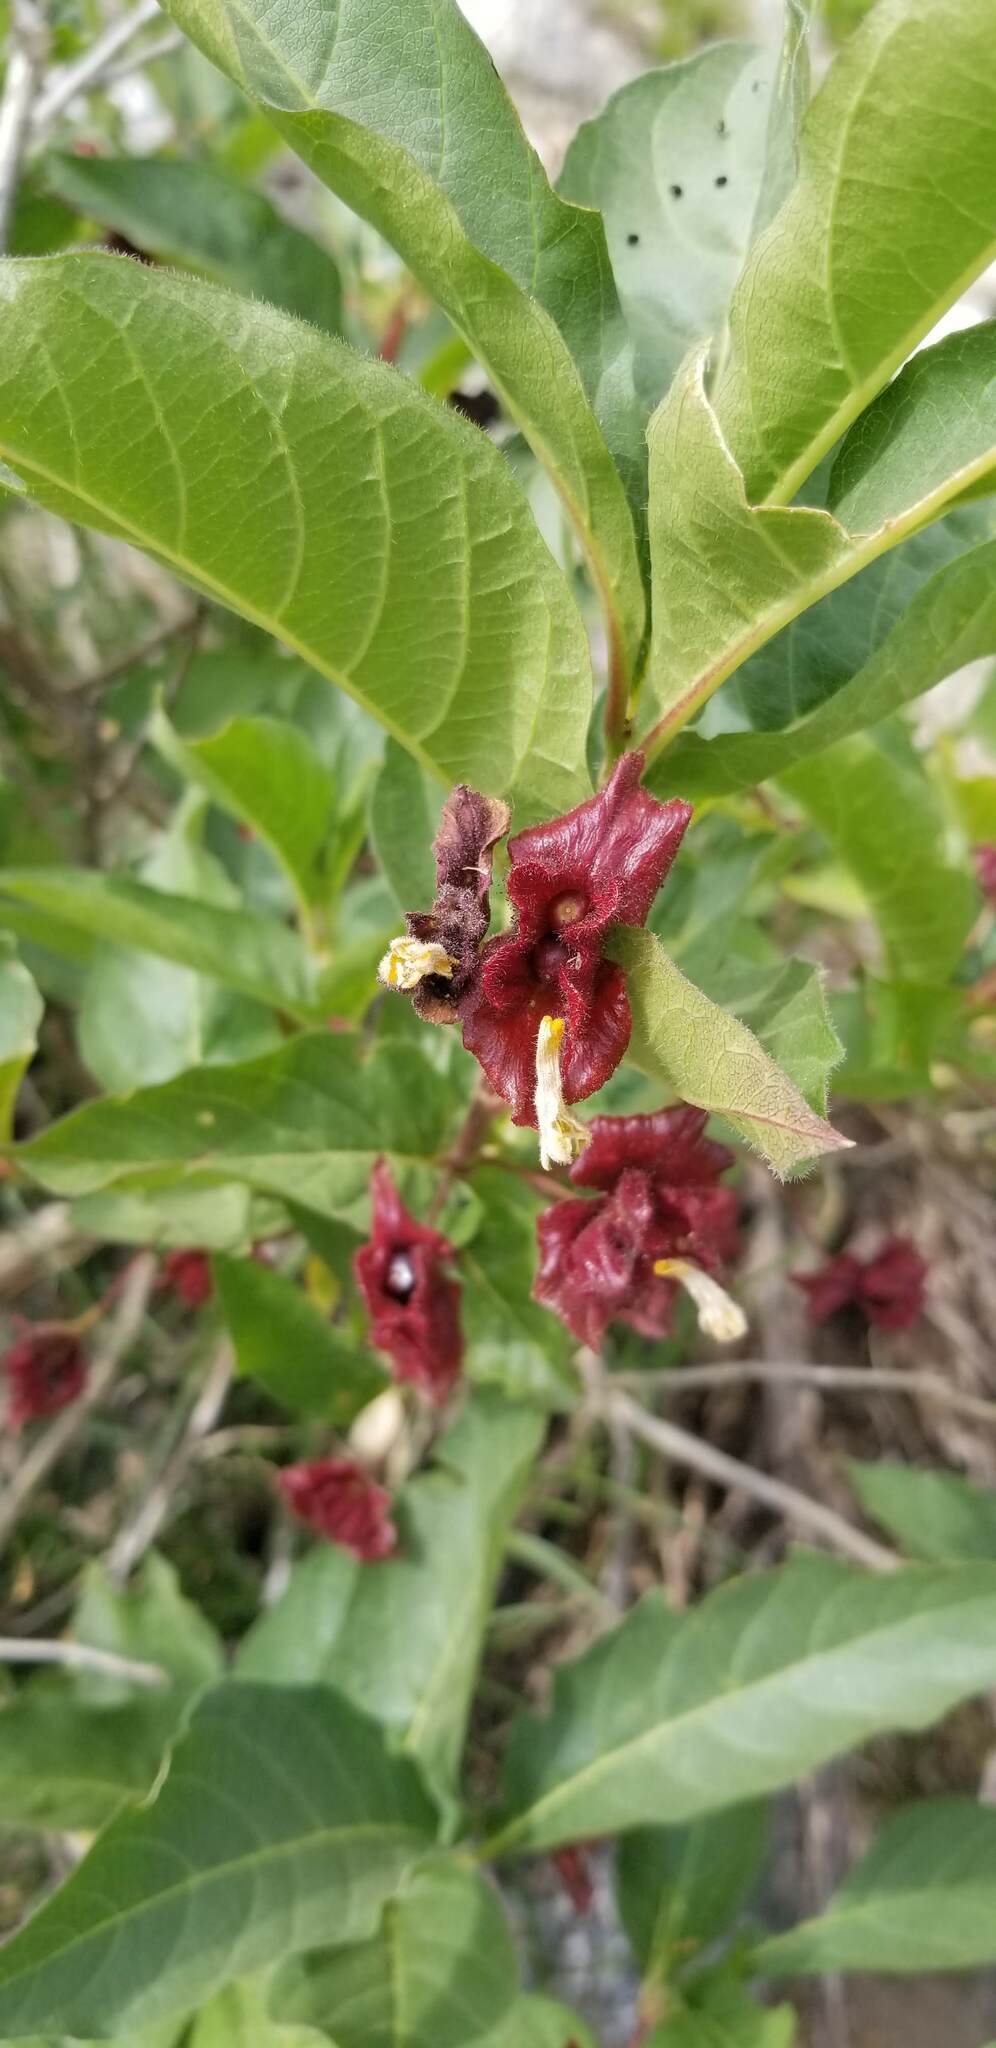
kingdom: Plantae
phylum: Tracheophyta
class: Magnoliopsida
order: Dipsacales
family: Caprifoliaceae
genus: Lonicera
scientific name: Lonicera involucrata
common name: Californian honeysuckle
